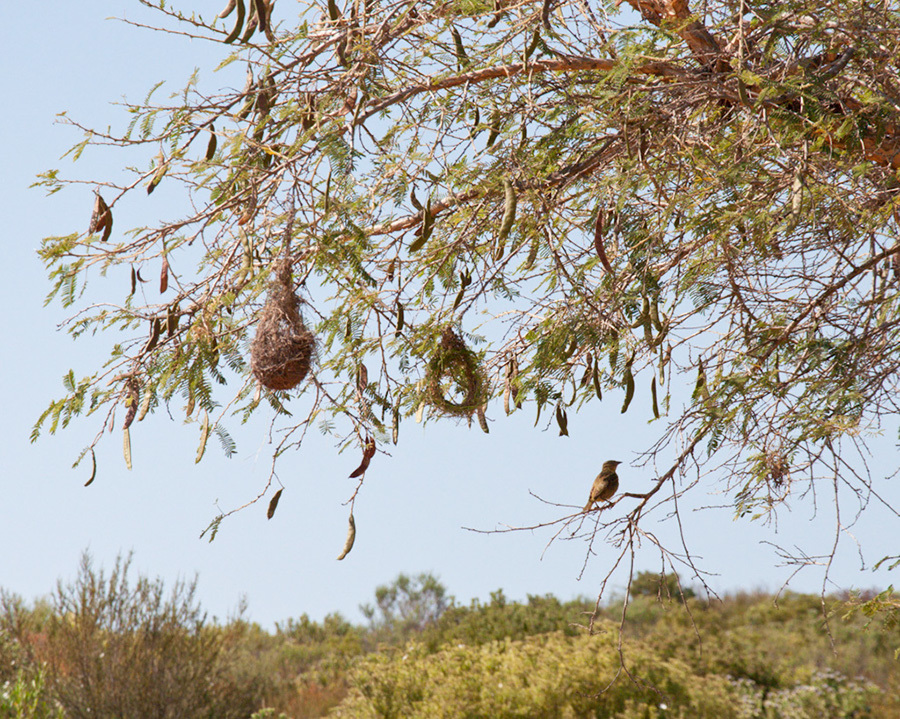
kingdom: Animalia
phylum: Chordata
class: Aves
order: Passeriformes
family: Ploceidae
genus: Ploceus
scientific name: Ploceus capensis
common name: Cape weaver
